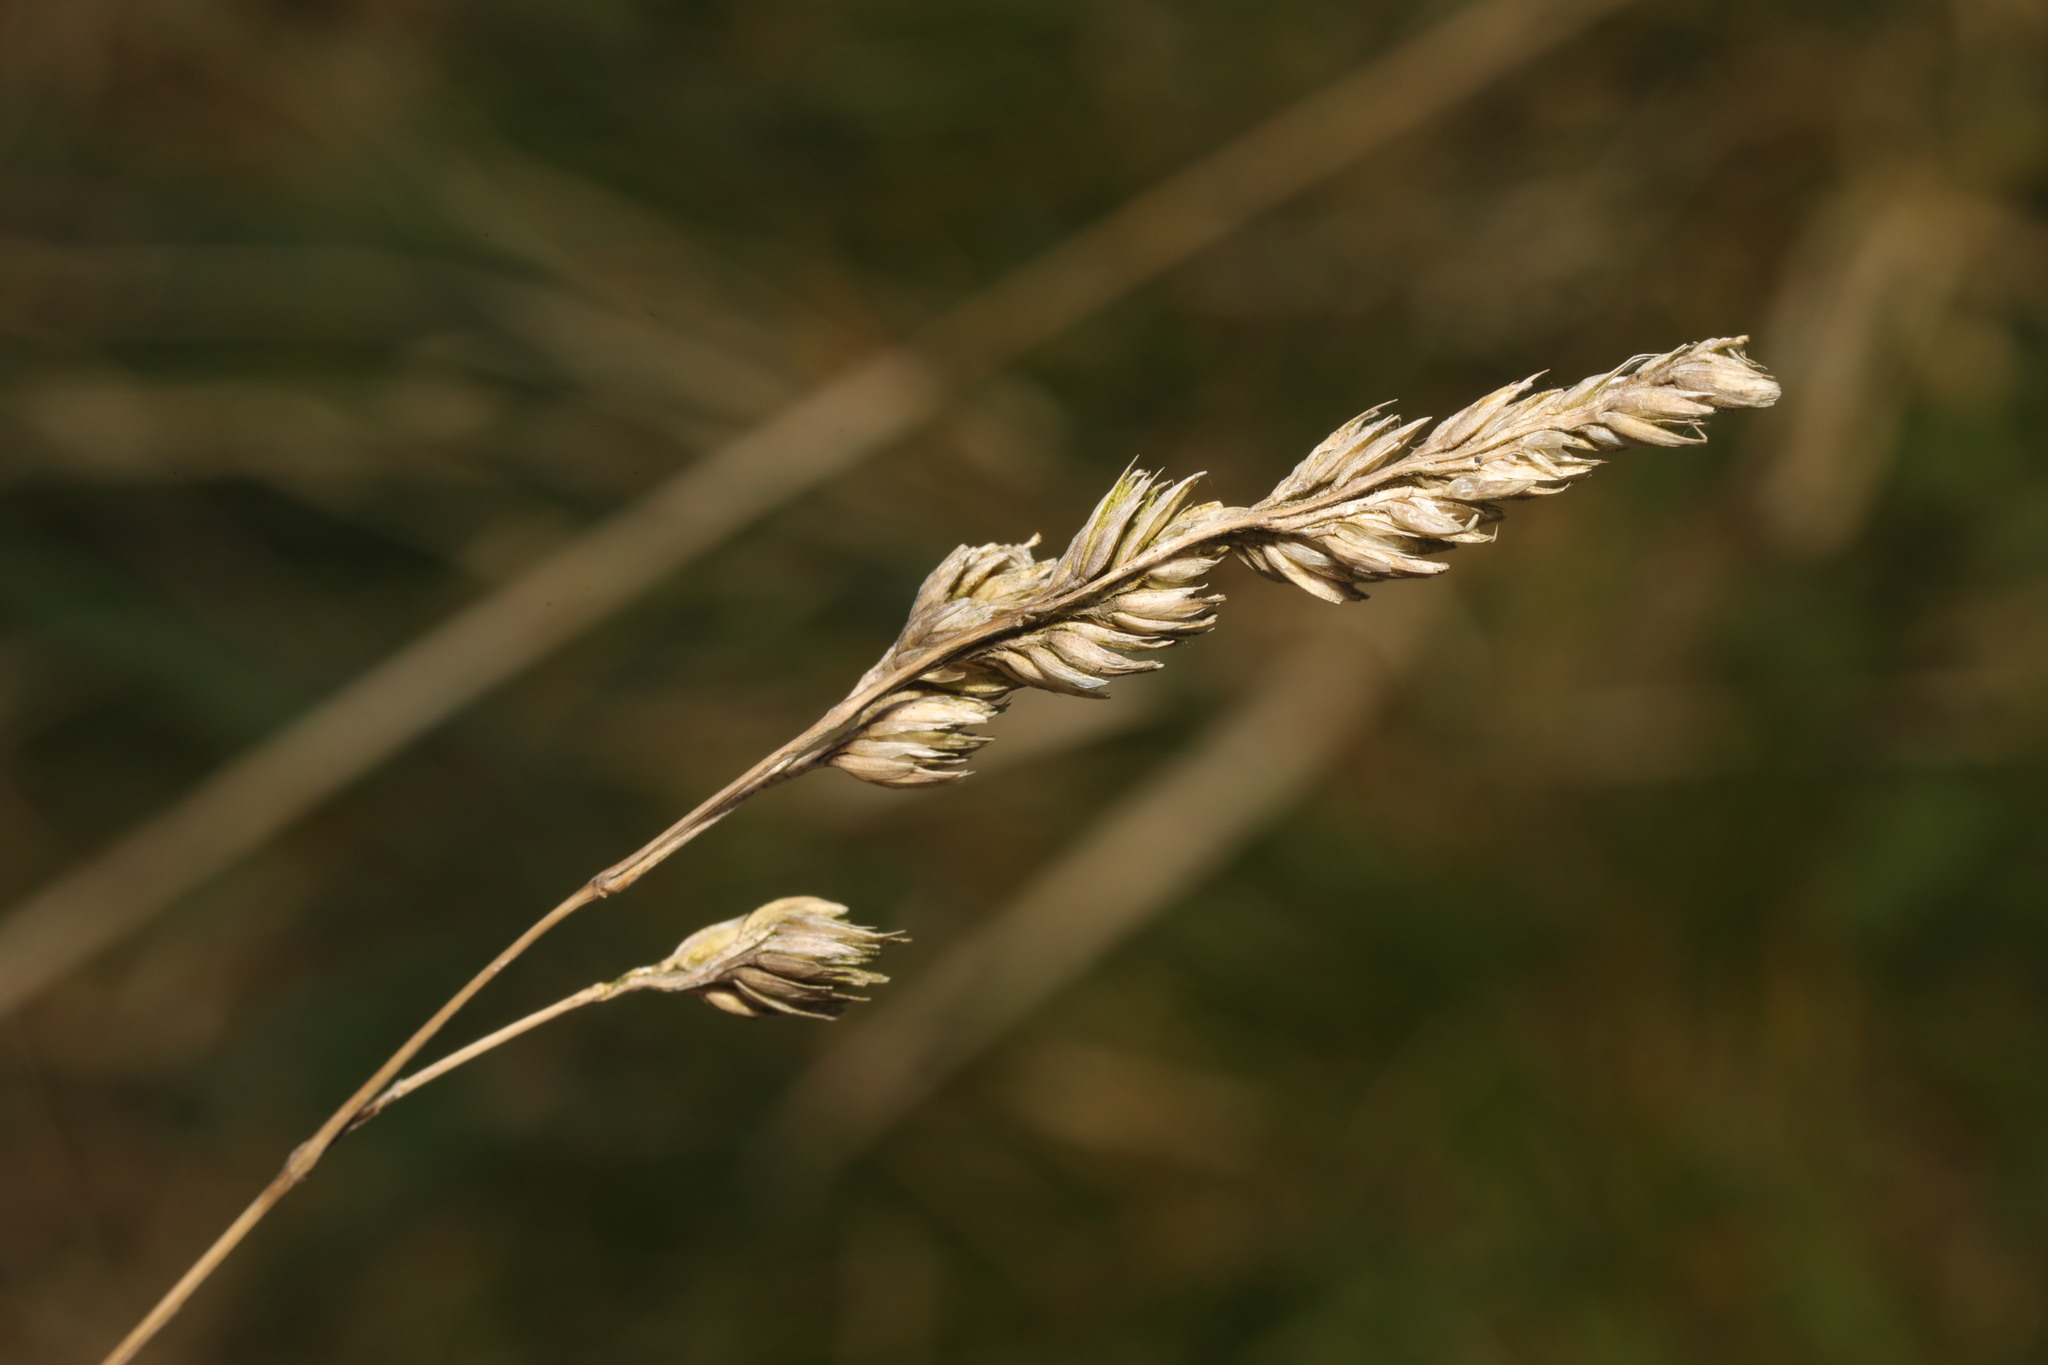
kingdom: Plantae
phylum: Tracheophyta
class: Liliopsida
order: Poales
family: Poaceae
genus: Dactylis
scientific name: Dactylis glomerata
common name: Orchardgrass
